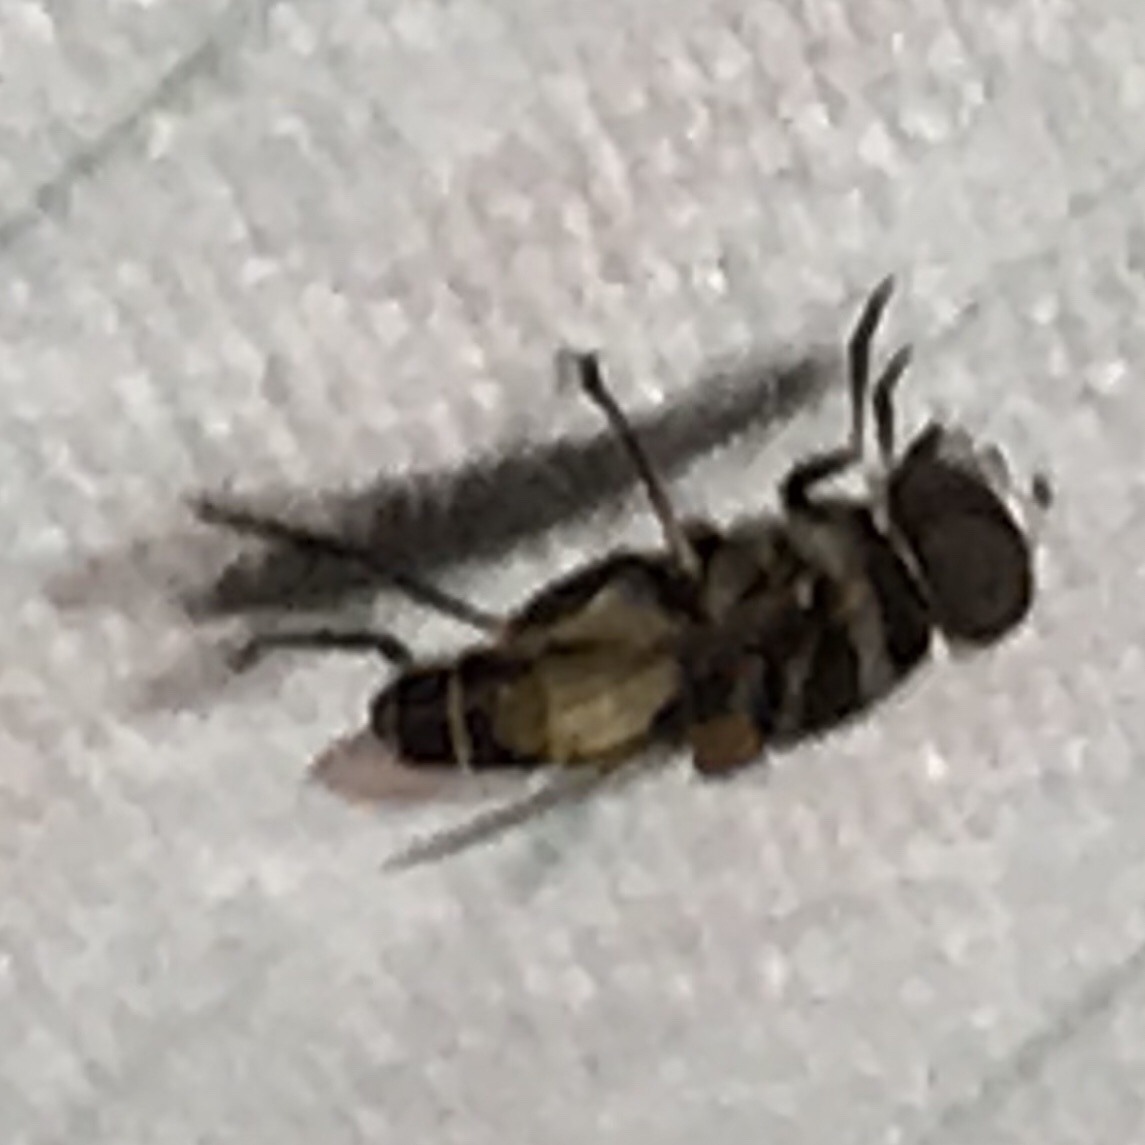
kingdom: Animalia
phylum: Arthropoda
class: Insecta
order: Diptera
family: Syrphidae
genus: Palpada
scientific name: Palpada albifrons
